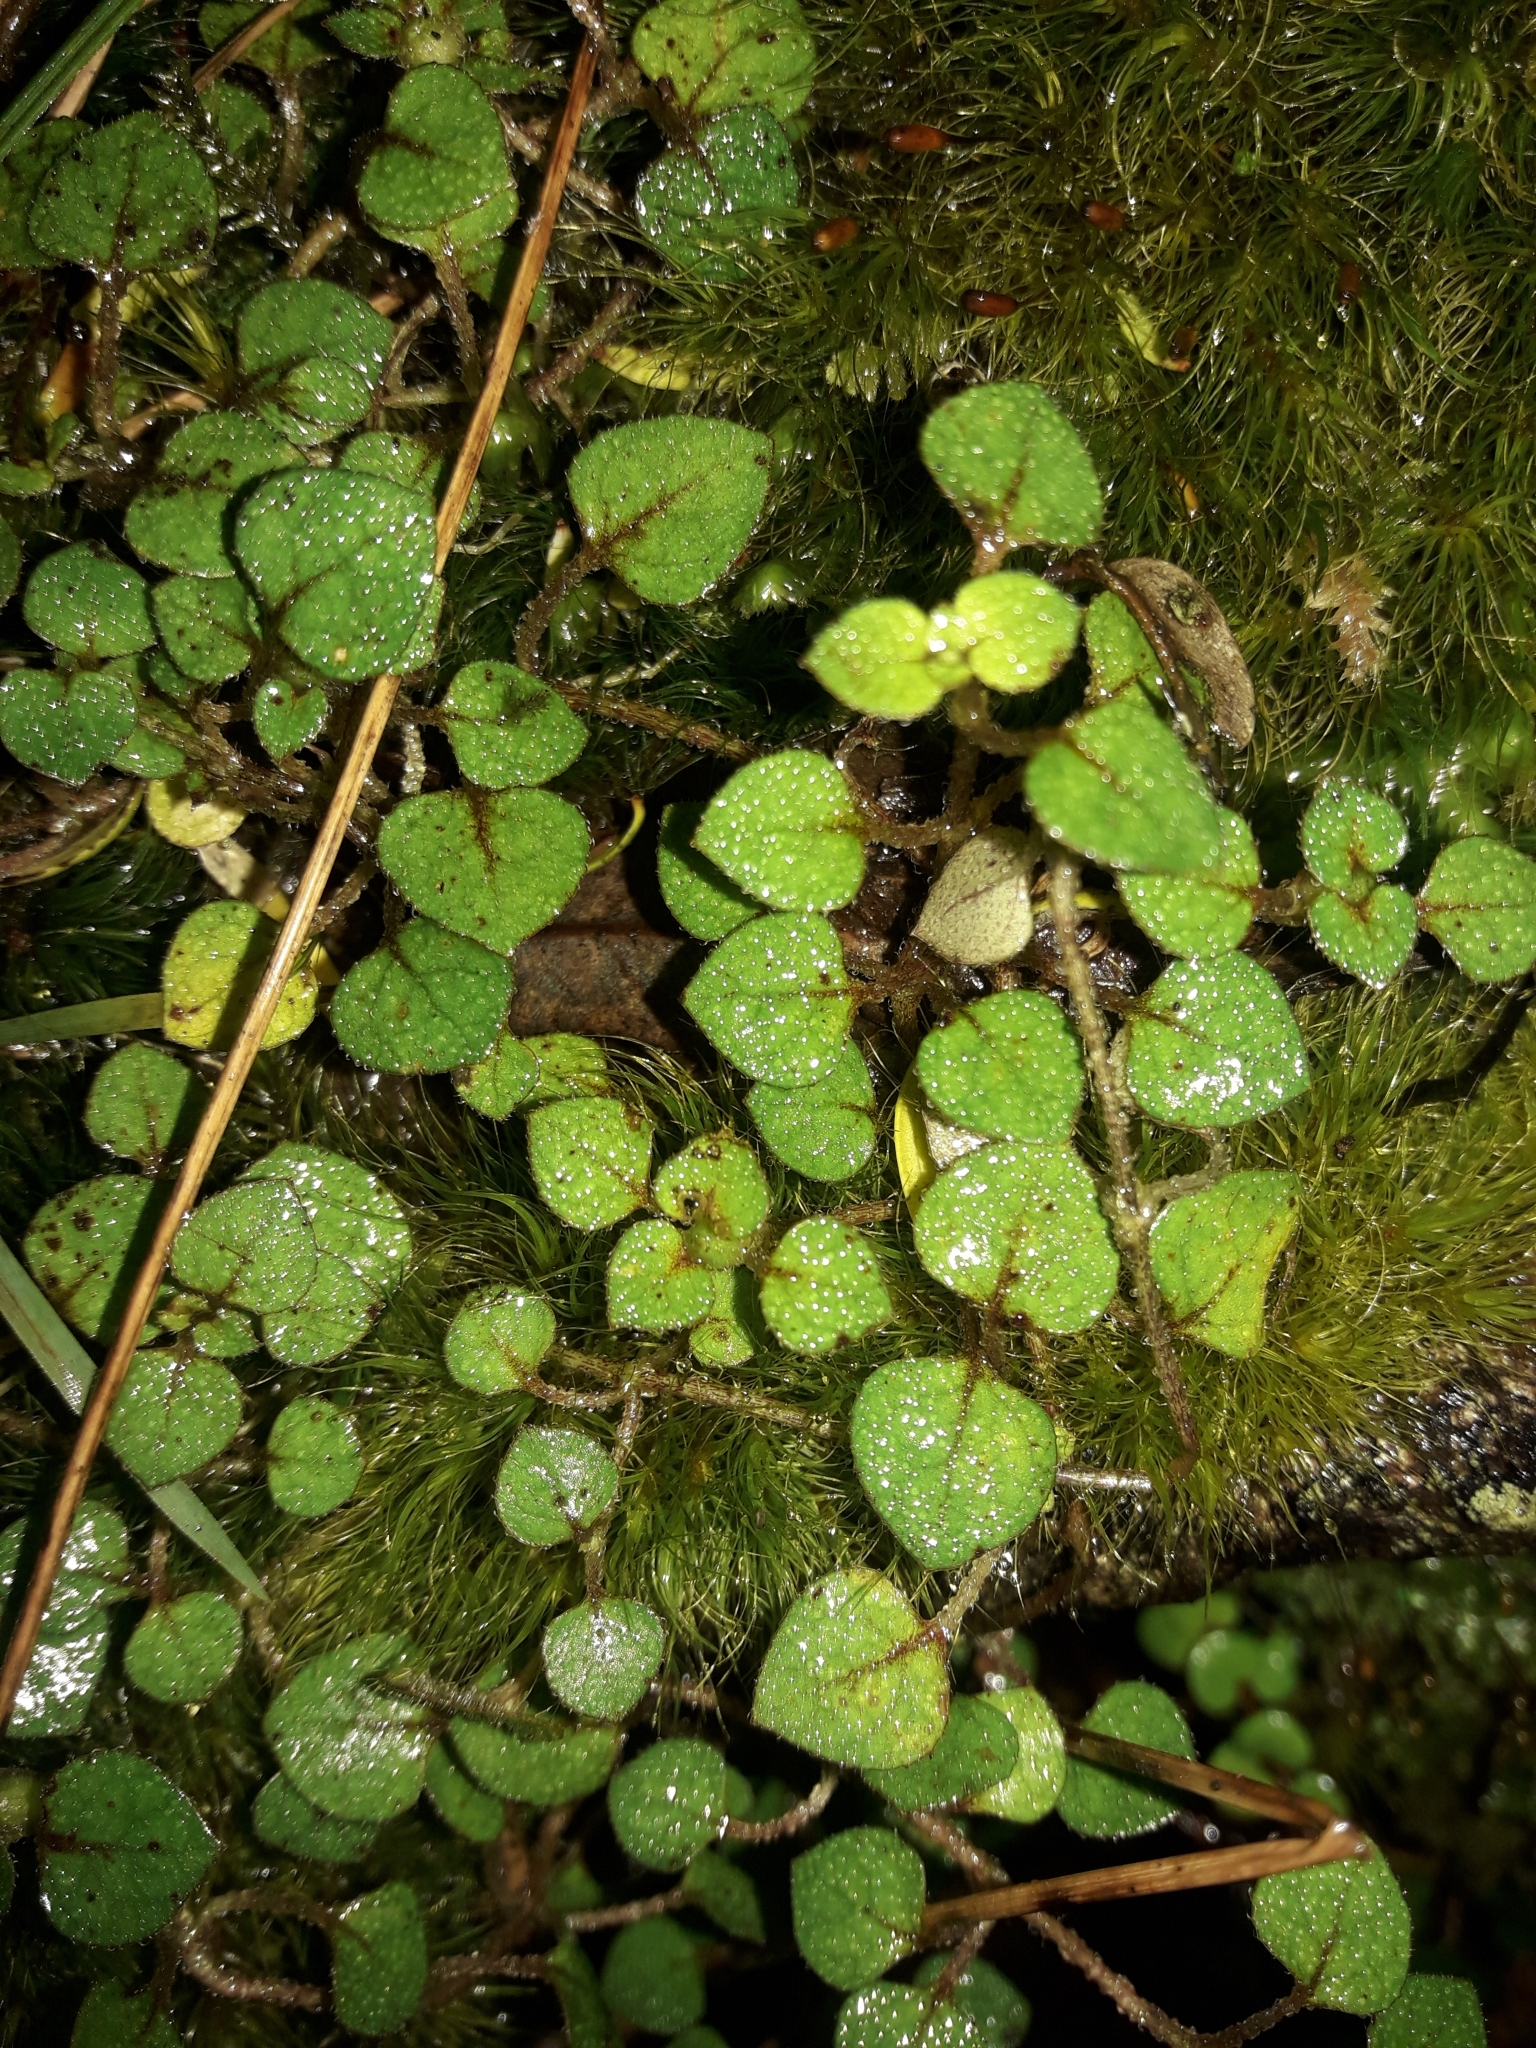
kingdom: Plantae
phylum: Tracheophyta
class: Magnoliopsida
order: Gentianales
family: Rubiaceae
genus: Nertera
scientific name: Nertera dichondrifolia
